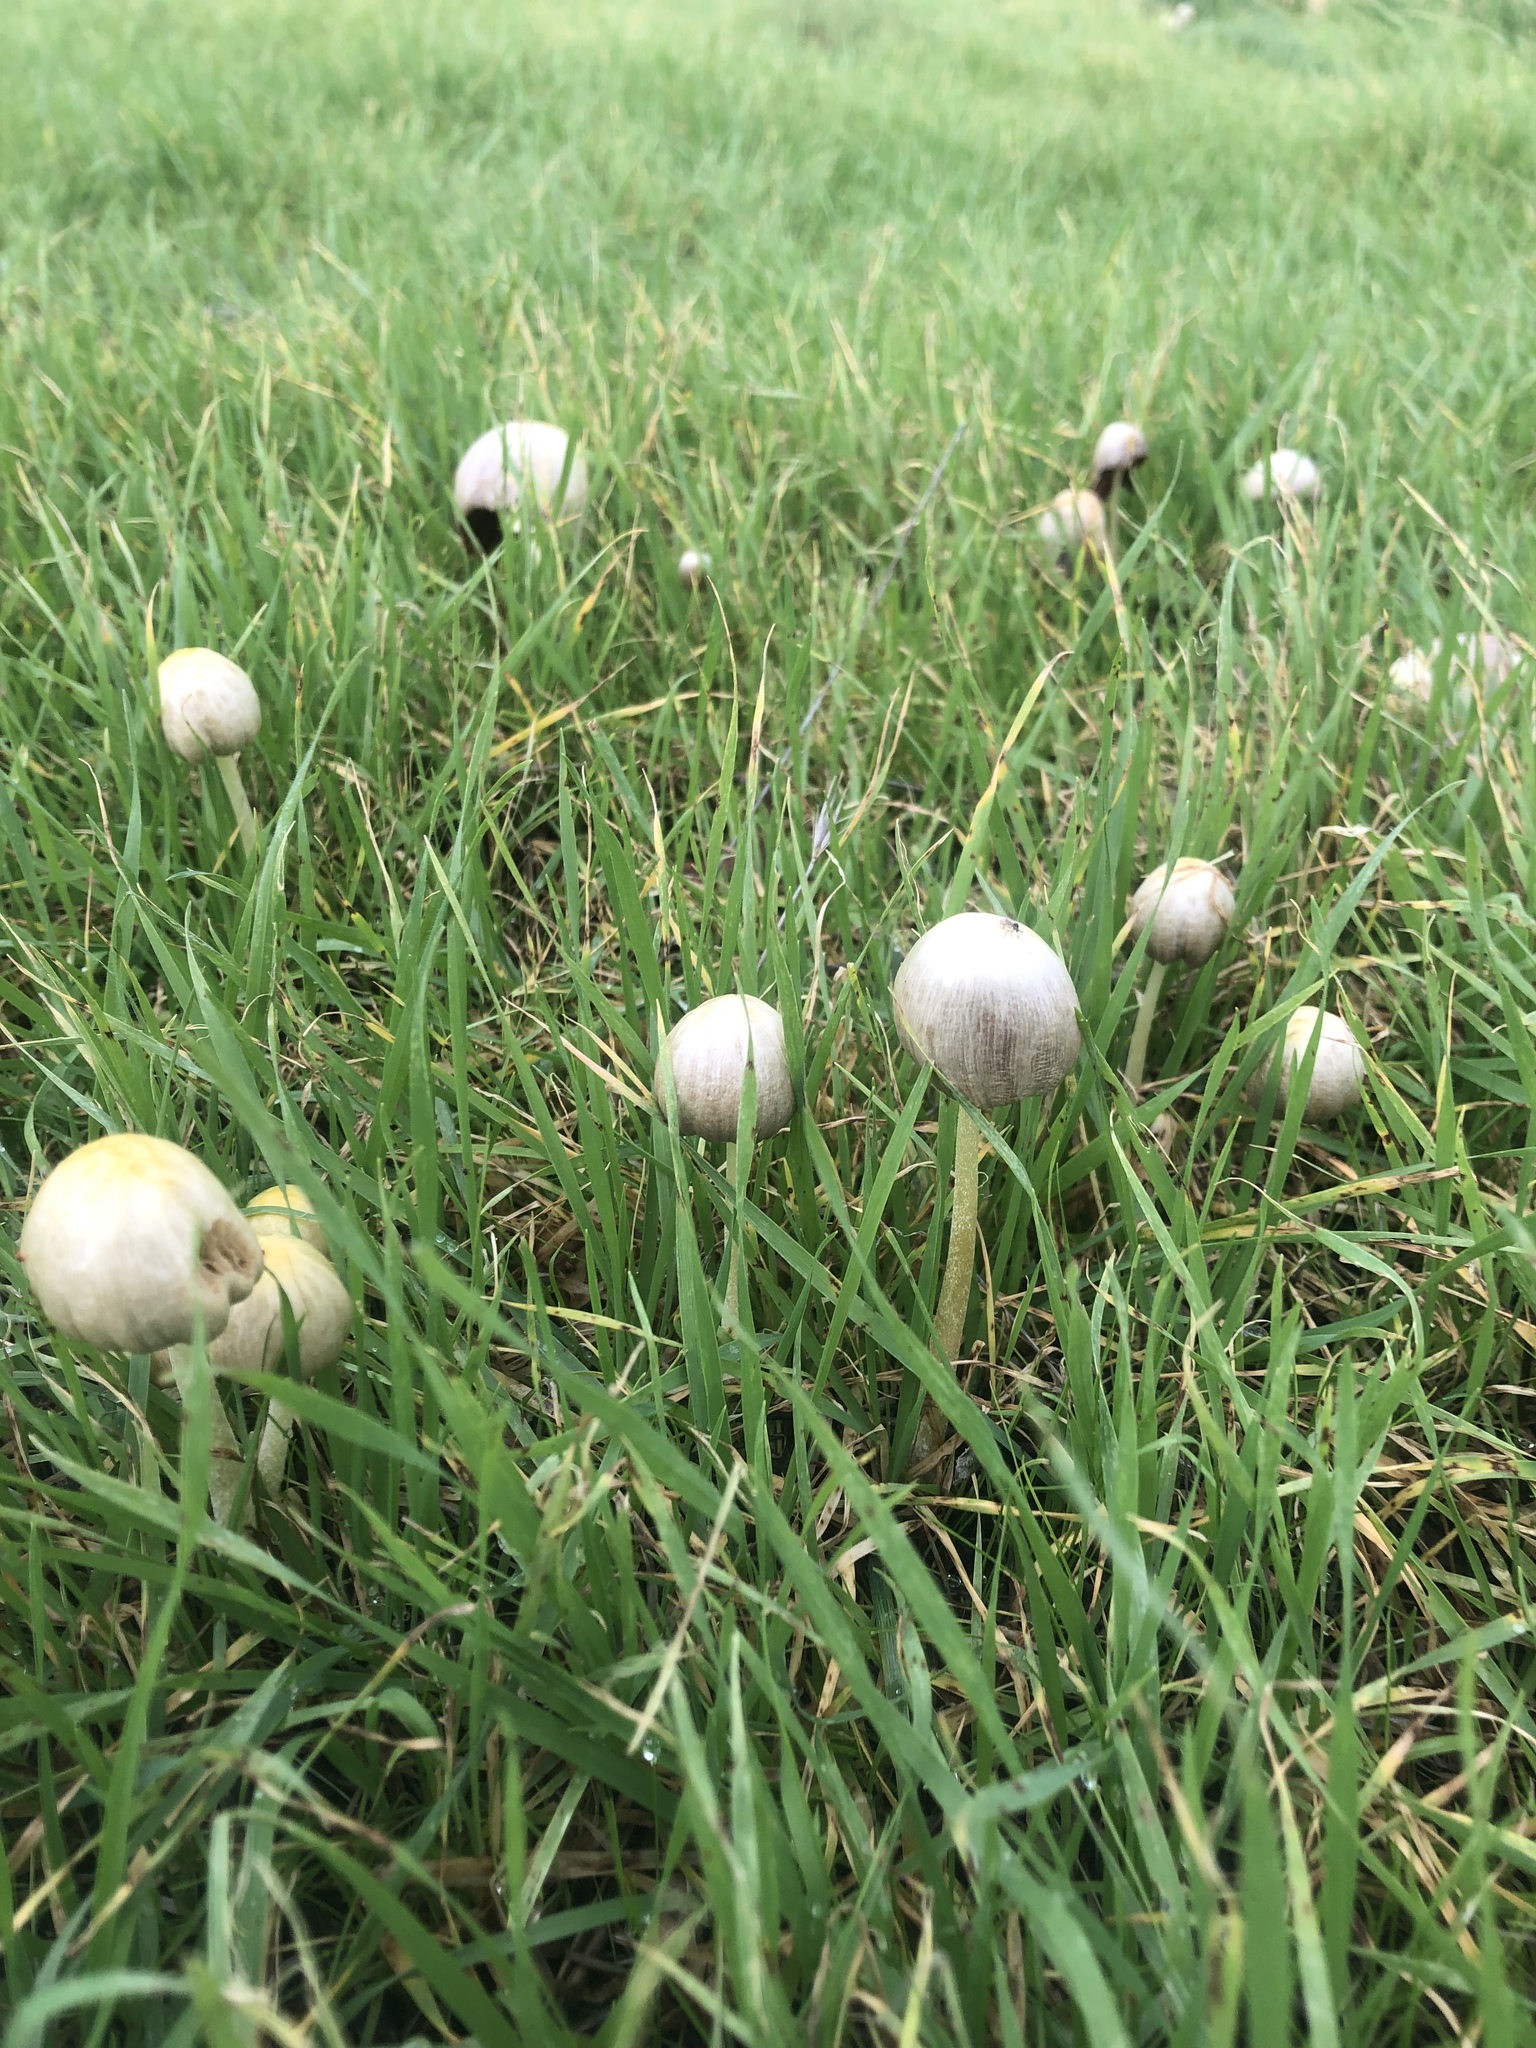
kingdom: Fungi
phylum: Basidiomycota
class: Agaricomycetes
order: Agaricales
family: Bolbitiaceae
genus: Bolbitius
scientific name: Bolbitius titubans
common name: Yellow fieldcap
